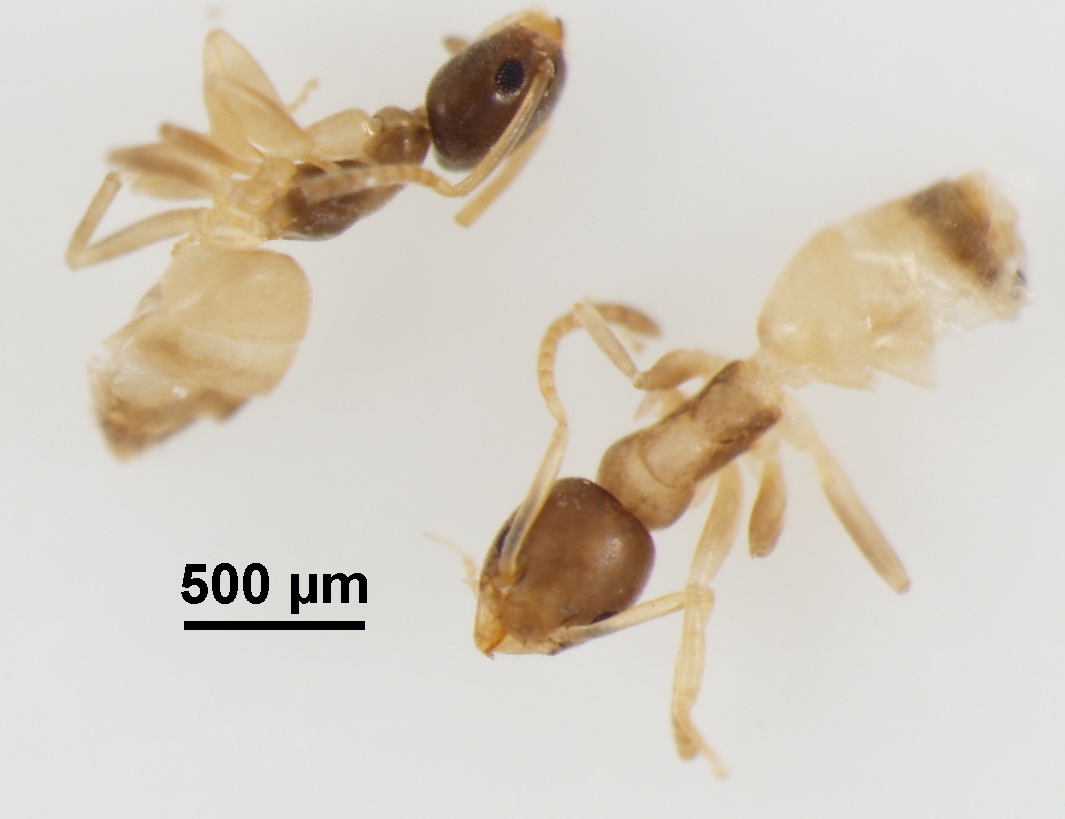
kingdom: Animalia
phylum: Arthropoda
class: Insecta
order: Hymenoptera
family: Formicidae
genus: Tapinoma
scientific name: Tapinoma melanocephalum
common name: Ghost ant
